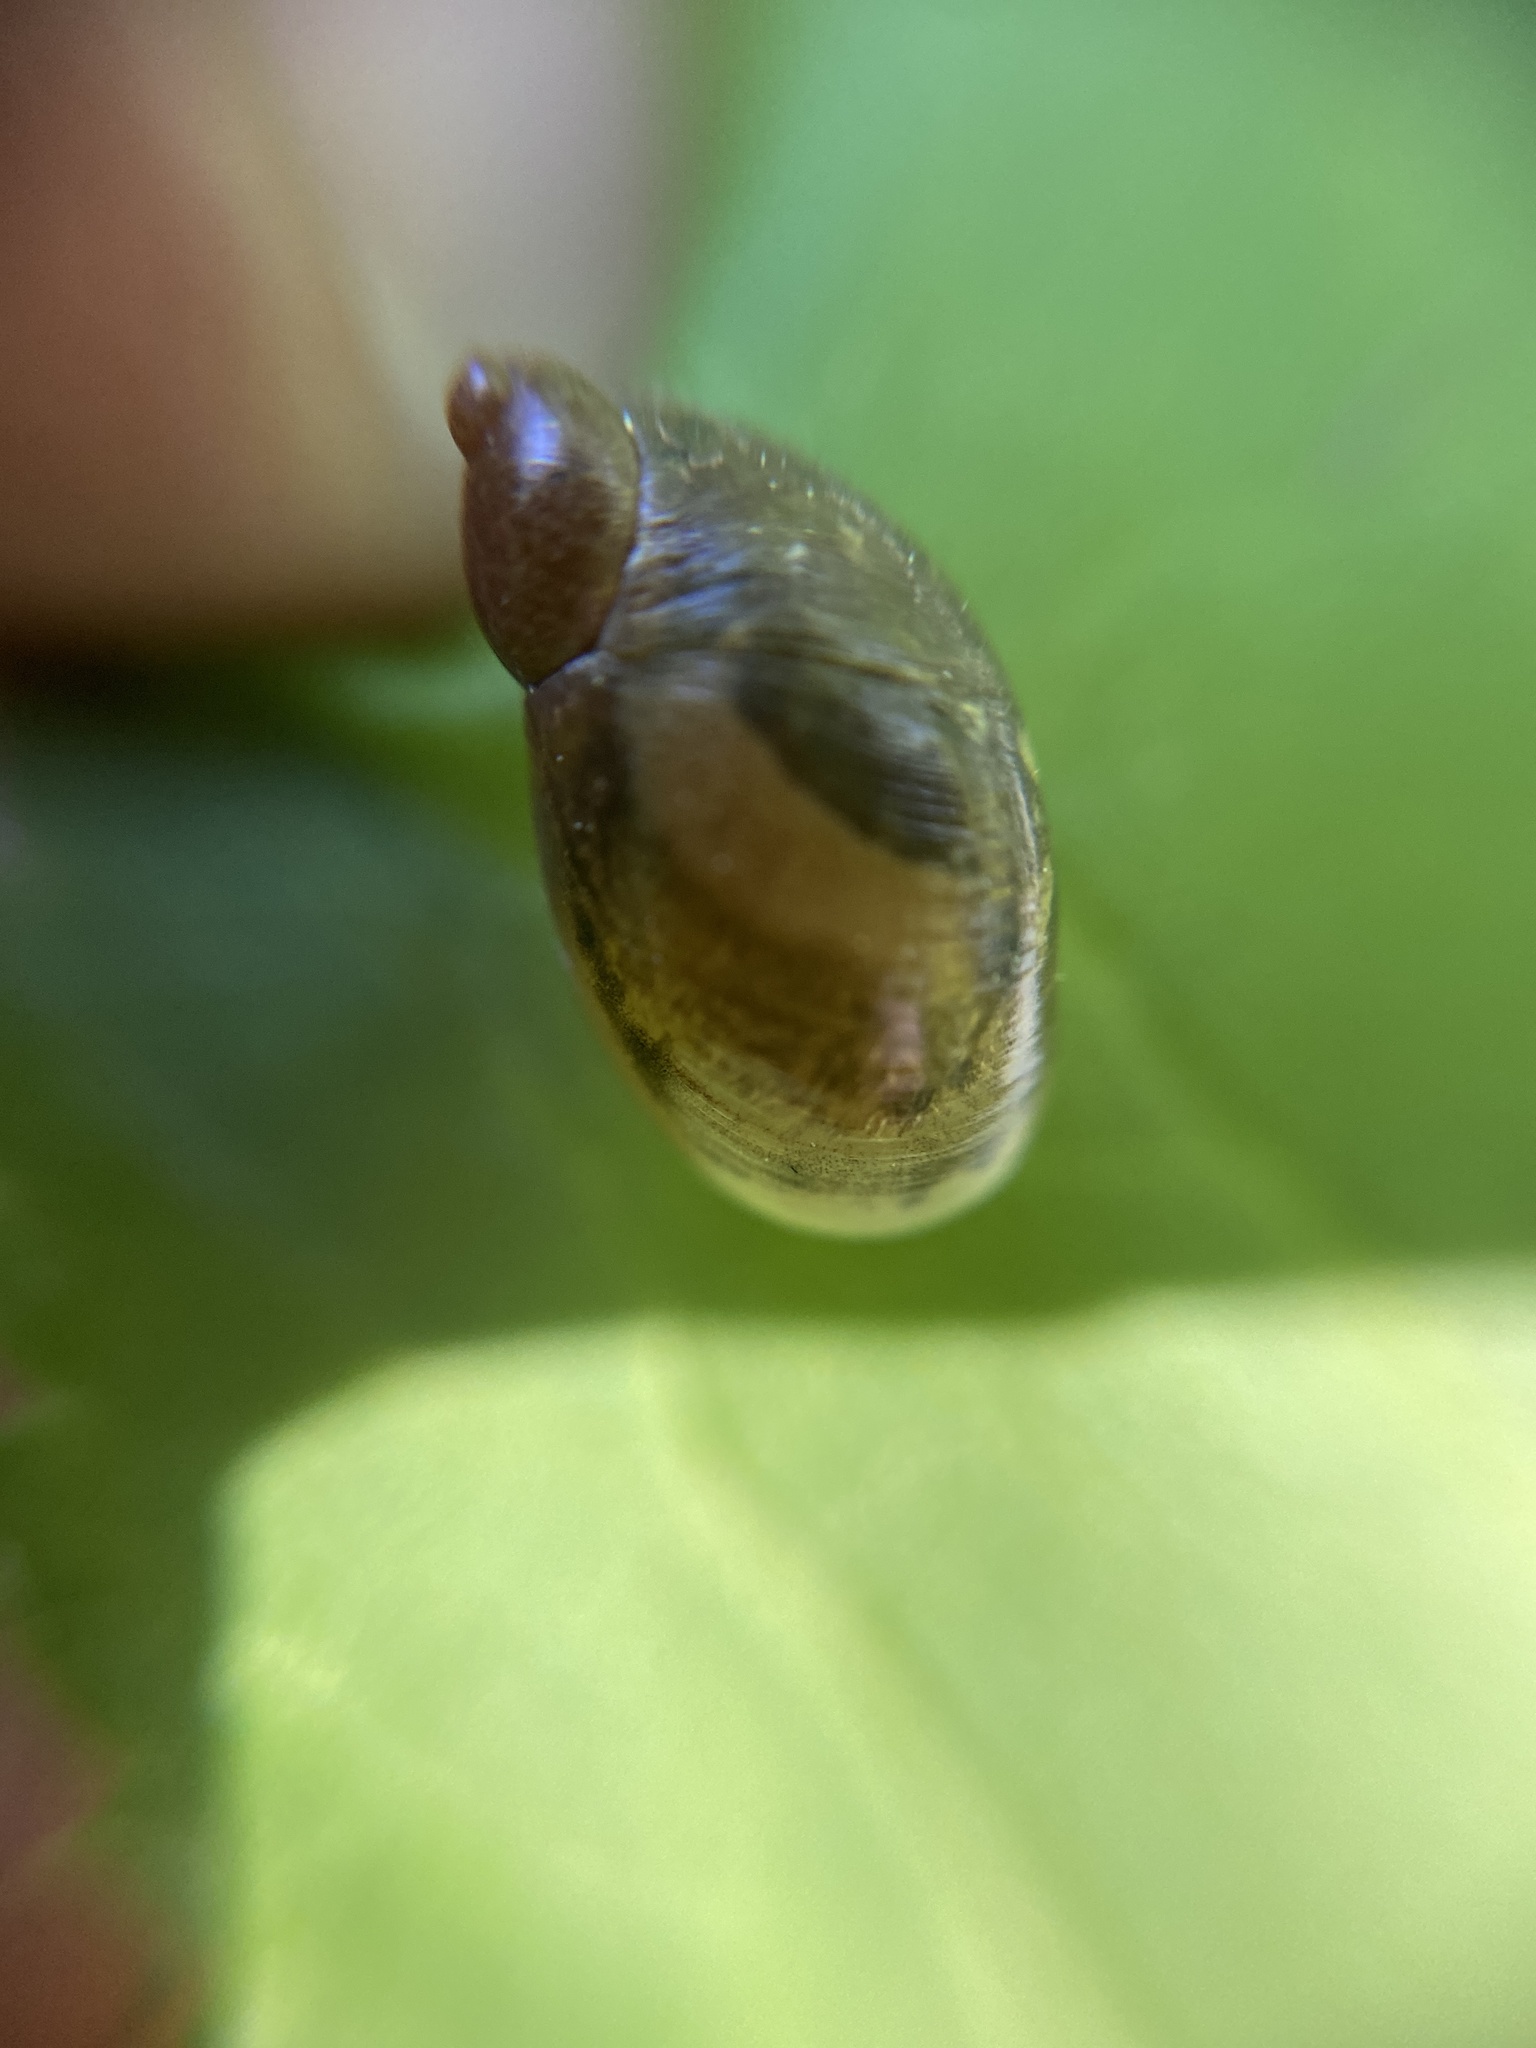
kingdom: Animalia
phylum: Mollusca
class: Gastropoda
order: Stylommatophora
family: Succineidae
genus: Succinea
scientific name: Succinea putris
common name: European ambersnail
